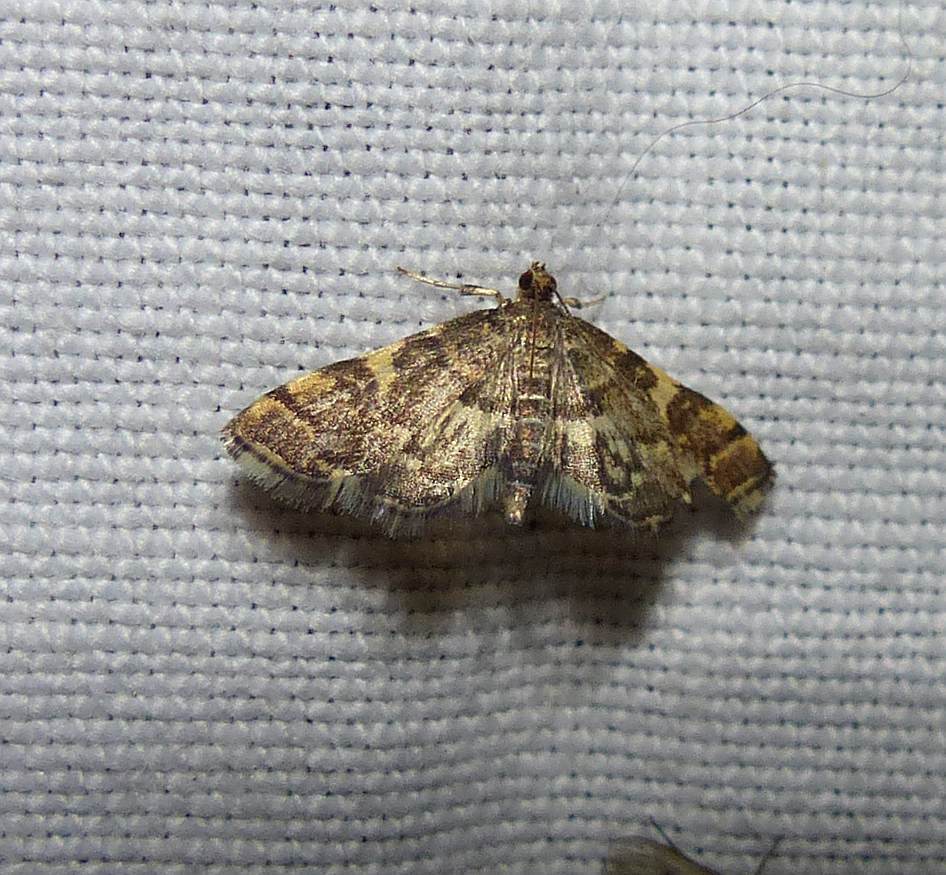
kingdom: Animalia
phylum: Arthropoda
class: Insecta
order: Lepidoptera
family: Crambidae
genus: Anageshna
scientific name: Anageshna primordialis
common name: Yellow-spotted webworm moth
